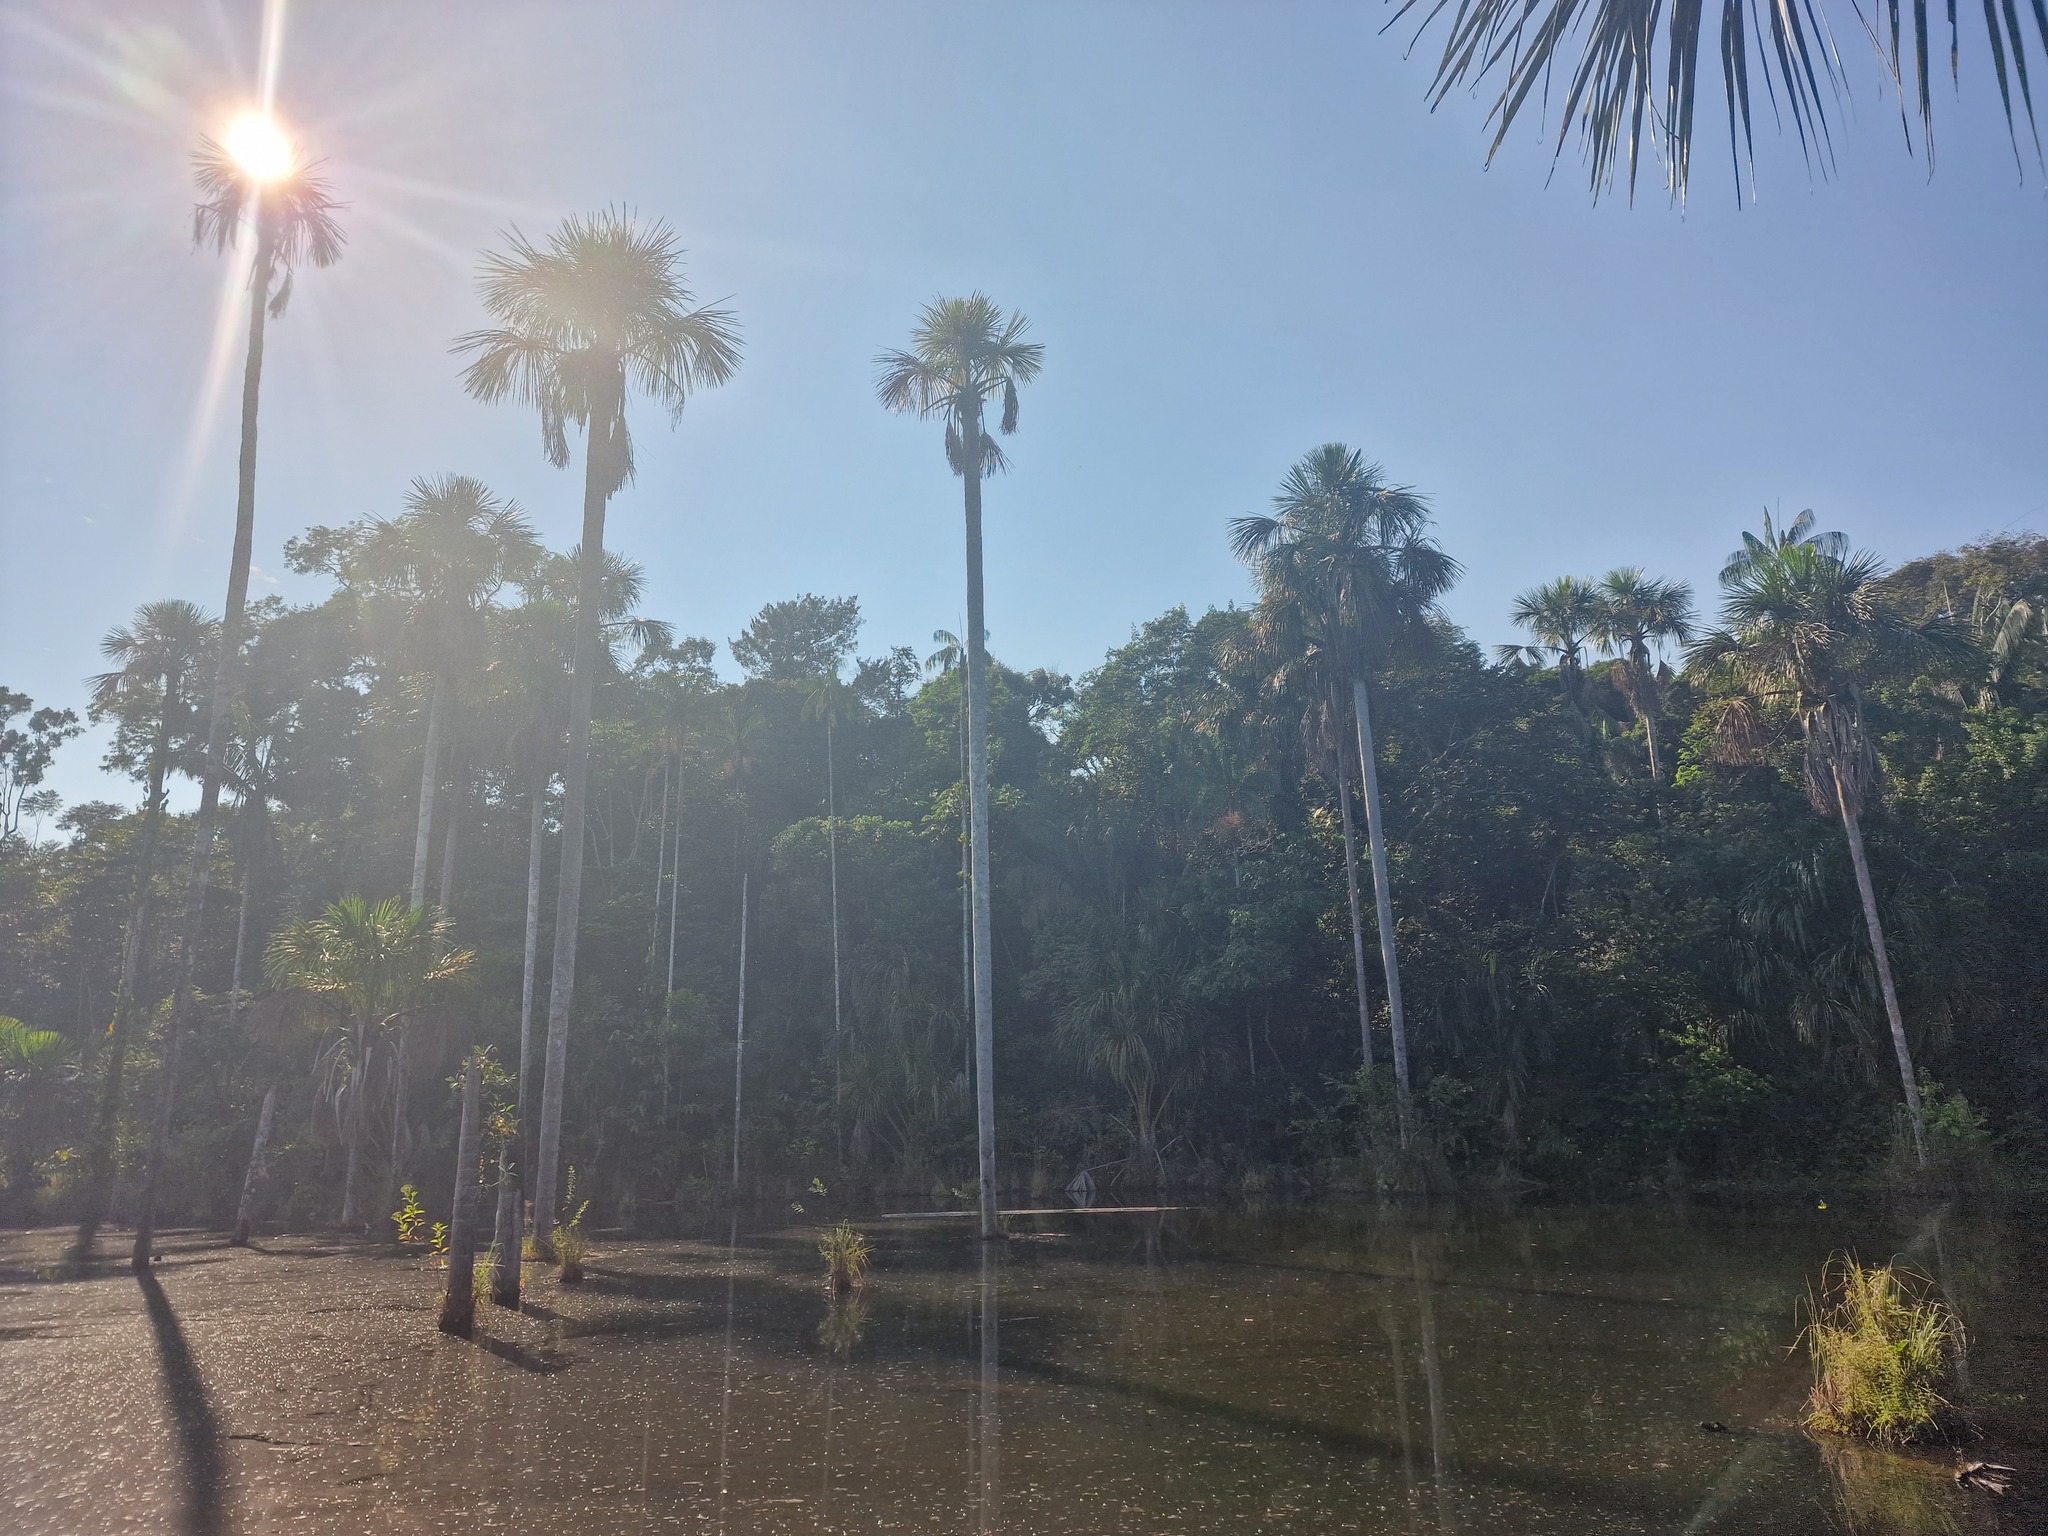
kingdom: Plantae
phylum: Tracheophyta
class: Liliopsida
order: Arecales
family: Arecaceae
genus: Mauritia
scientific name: Mauritia flexuosa
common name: Tree-of-life
